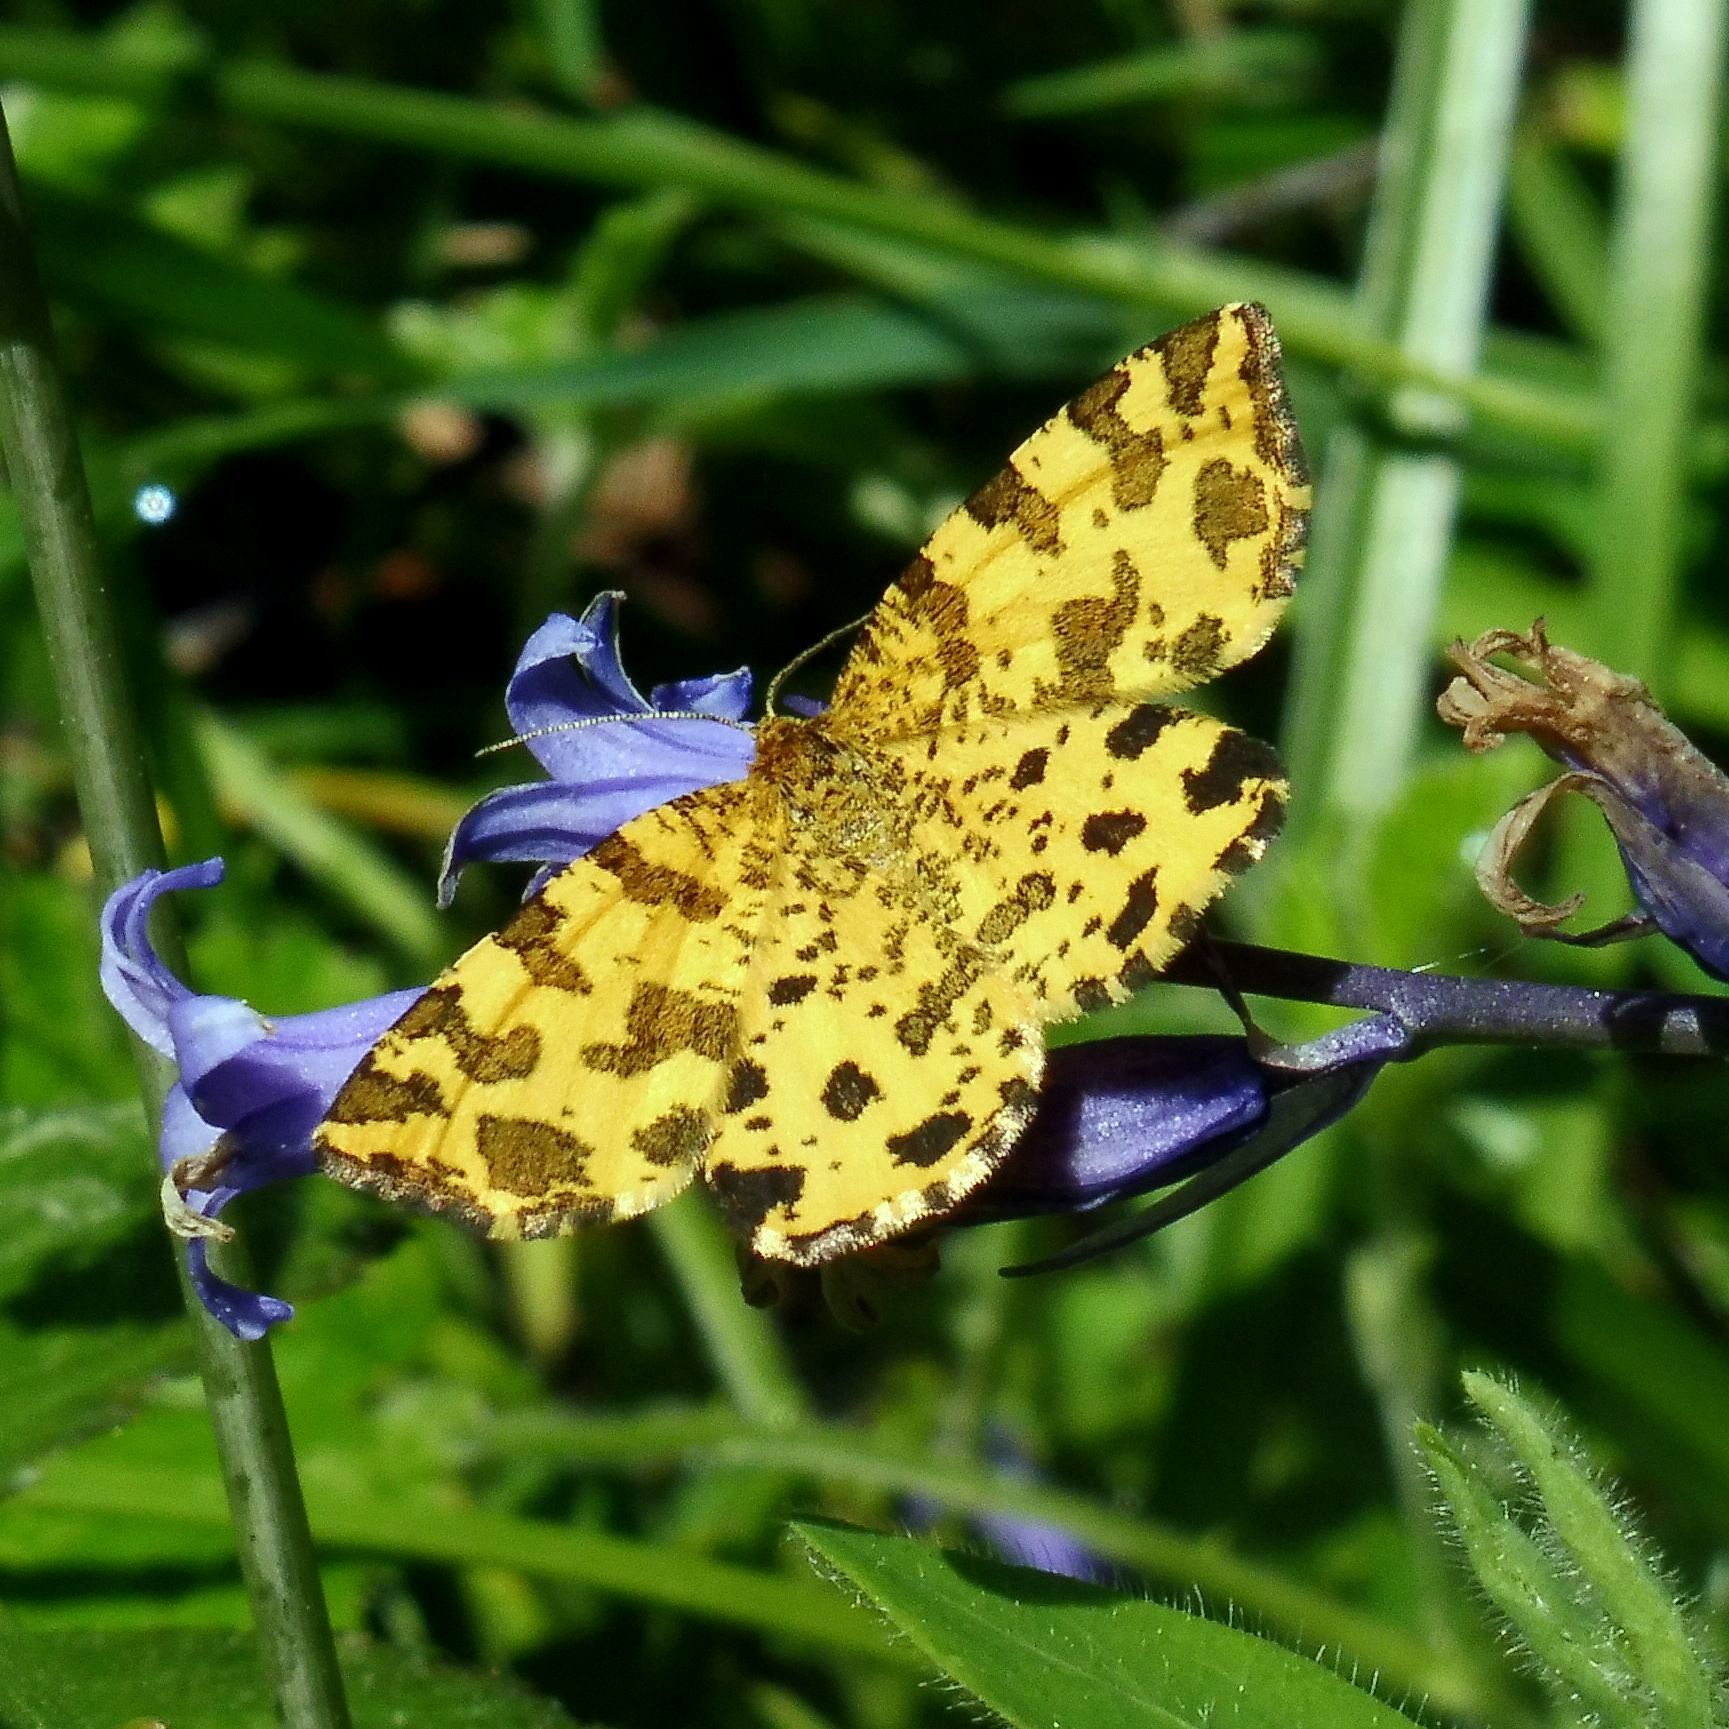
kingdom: Animalia
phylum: Arthropoda
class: Insecta
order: Lepidoptera
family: Geometridae
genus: Pseudopanthera
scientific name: Pseudopanthera macularia
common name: Speckled yellow
